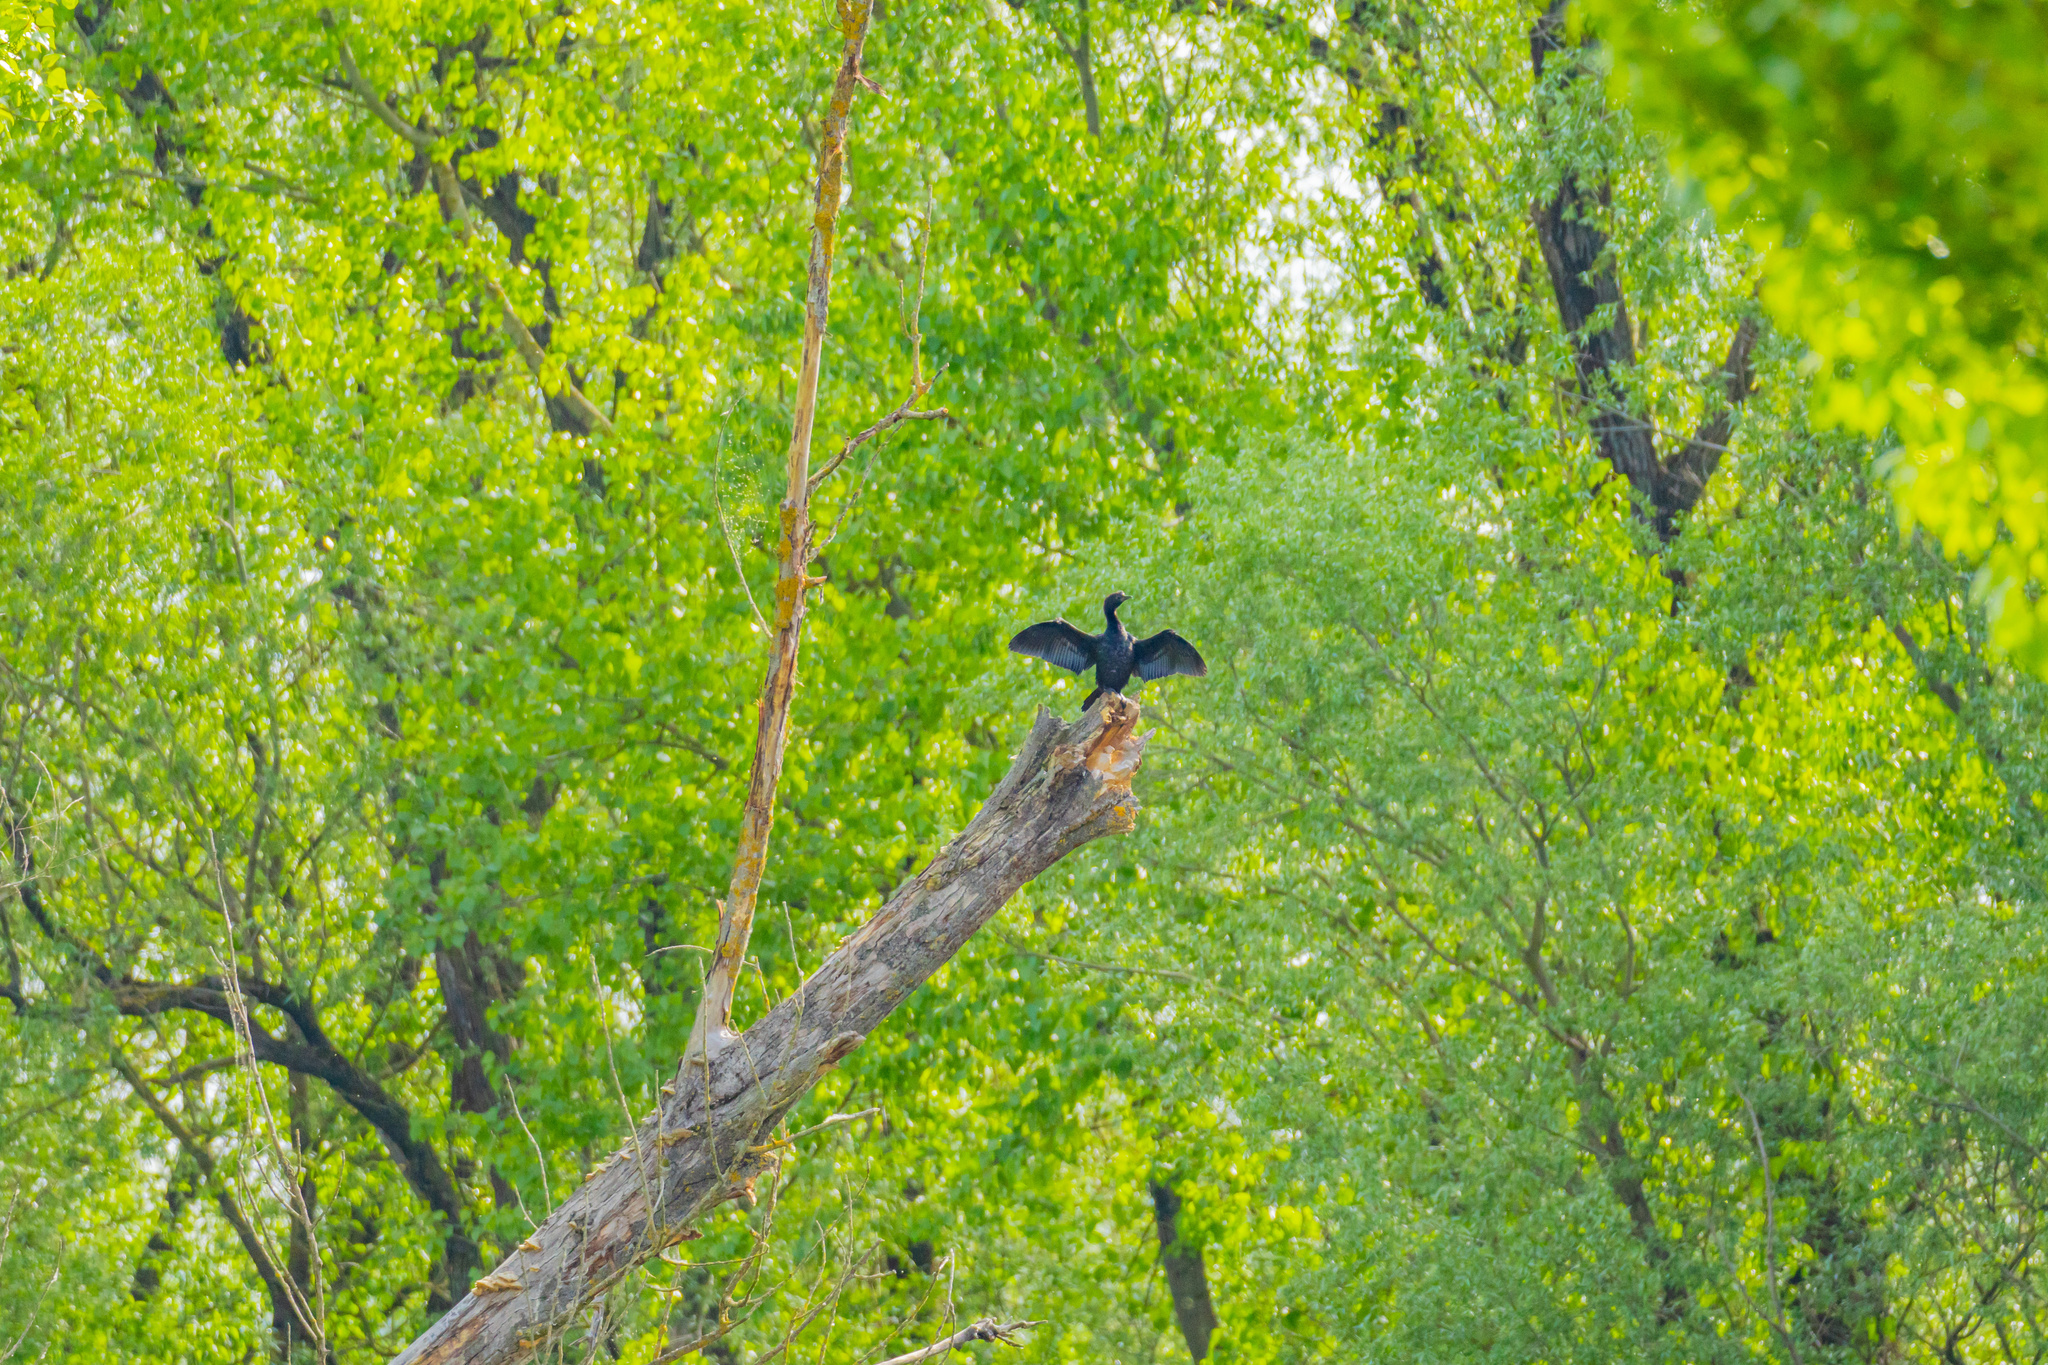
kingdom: Animalia
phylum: Chordata
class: Aves
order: Suliformes
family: Phalacrocoracidae
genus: Microcarbo
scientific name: Microcarbo pygmaeus
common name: Pygmy cormorant
